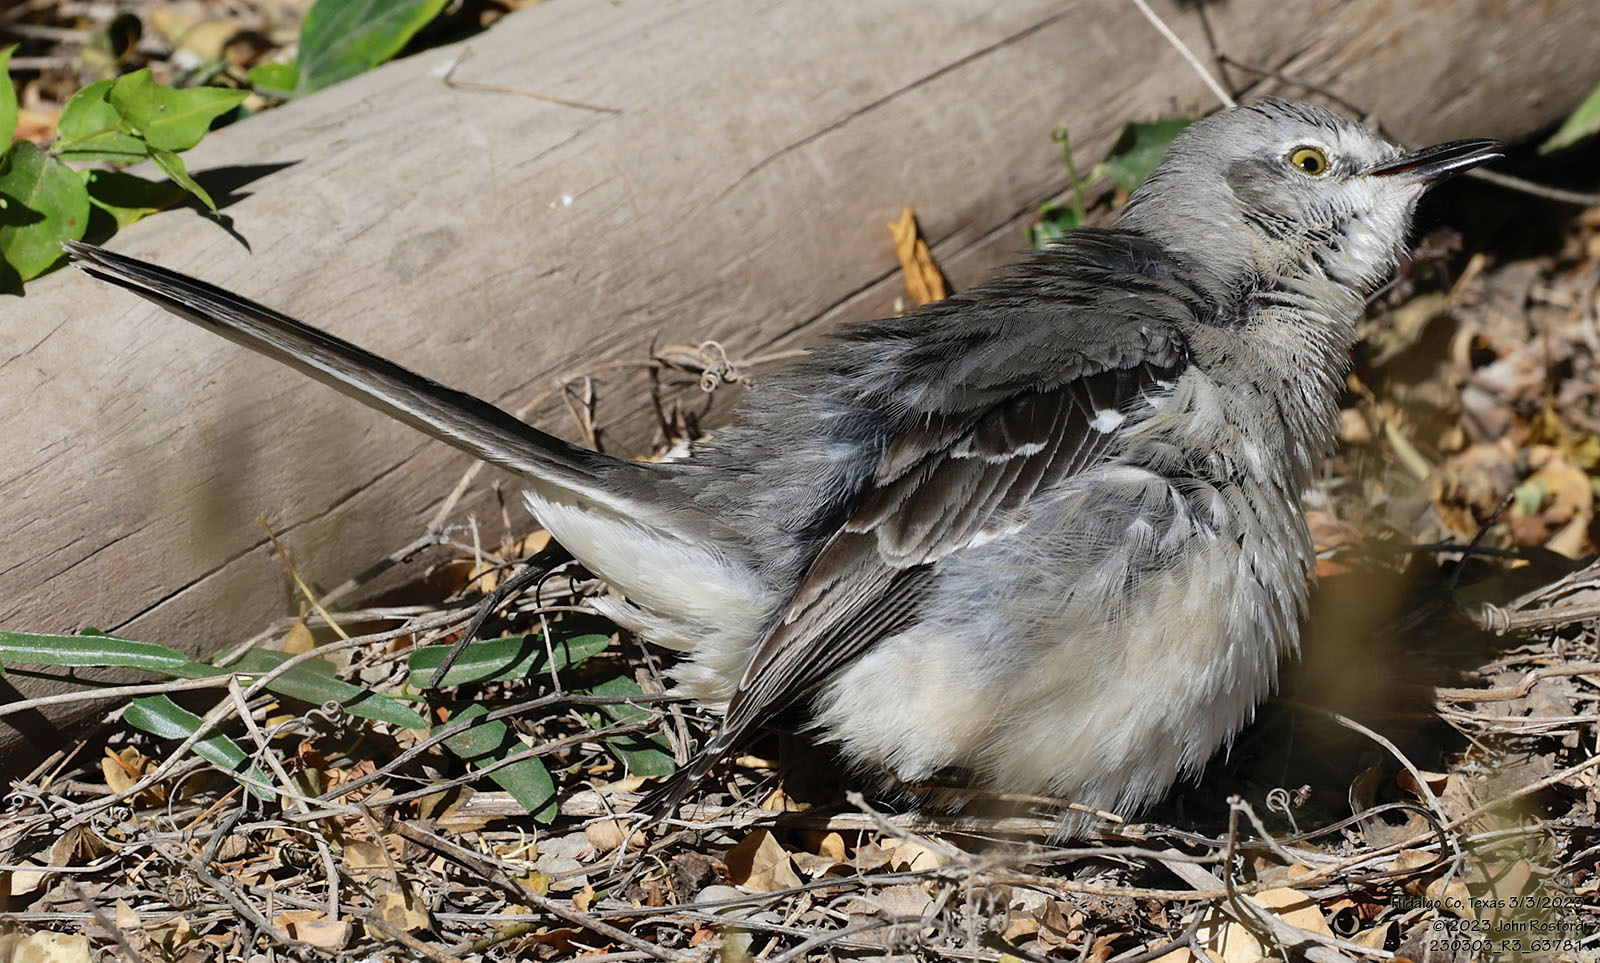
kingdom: Animalia
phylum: Chordata
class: Aves
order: Passeriformes
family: Mimidae
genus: Mimus
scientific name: Mimus polyglottos
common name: Northern mockingbird
